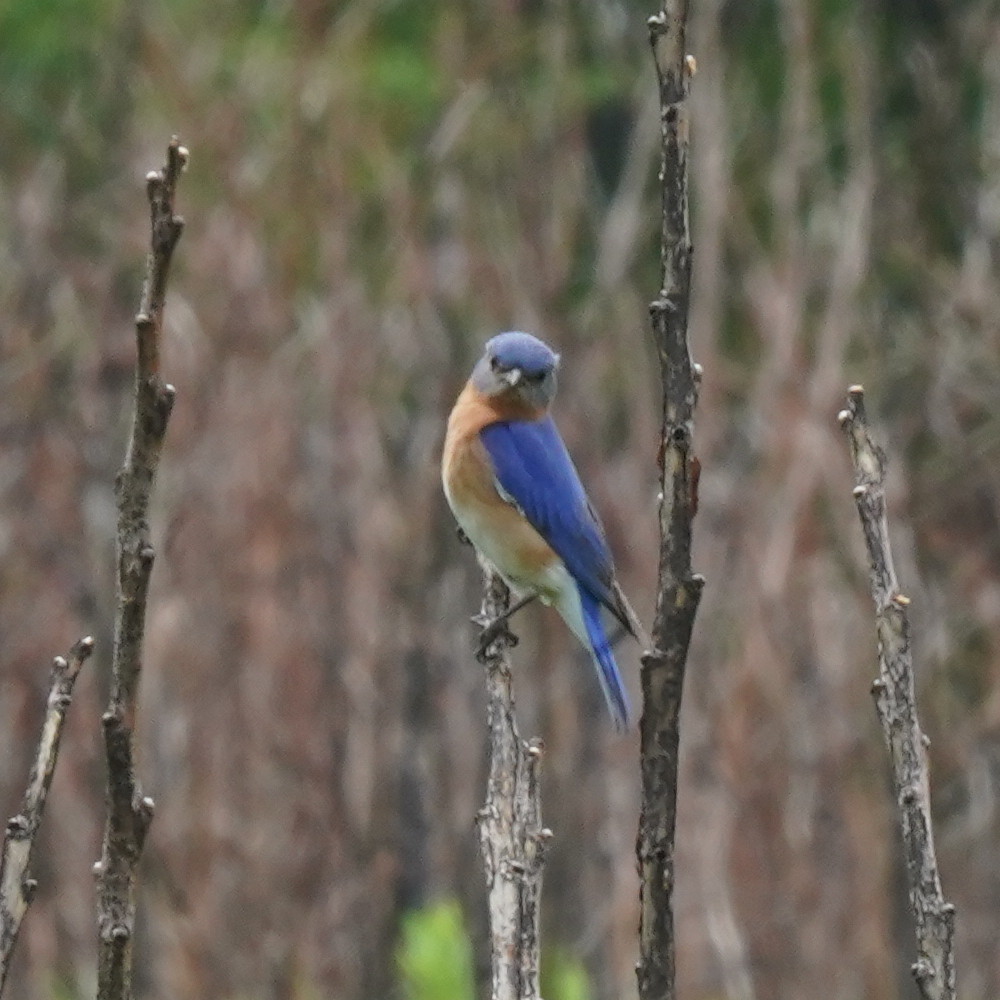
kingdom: Animalia
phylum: Chordata
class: Aves
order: Passeriformes
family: Turdidae
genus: Sialia
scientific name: Sialia sialis
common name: Eastern bluebird
